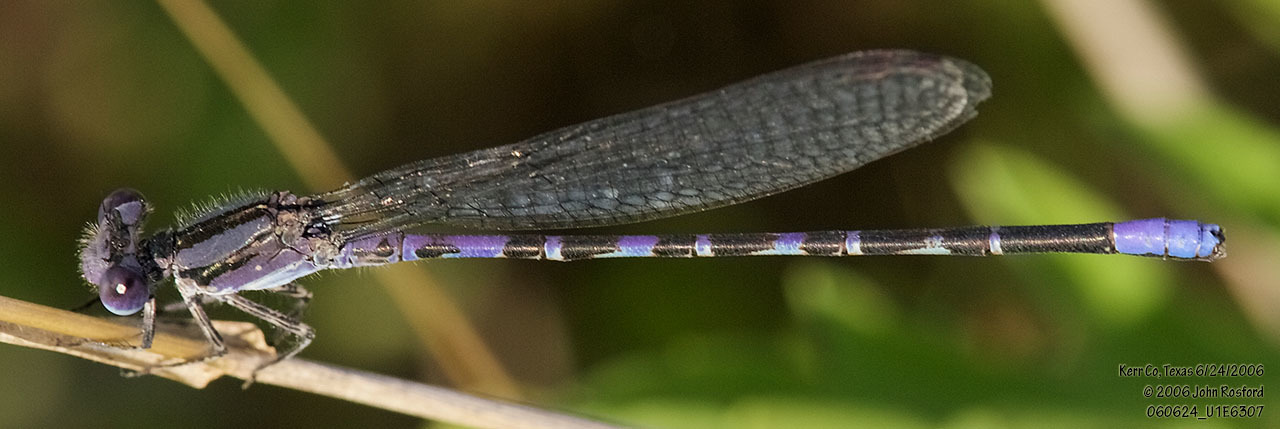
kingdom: Animalia
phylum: Arthropoda
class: Insecta
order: Odonata
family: Coenagrionidae
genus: Argia
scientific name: Argia immunda
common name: Kiowa dancer
